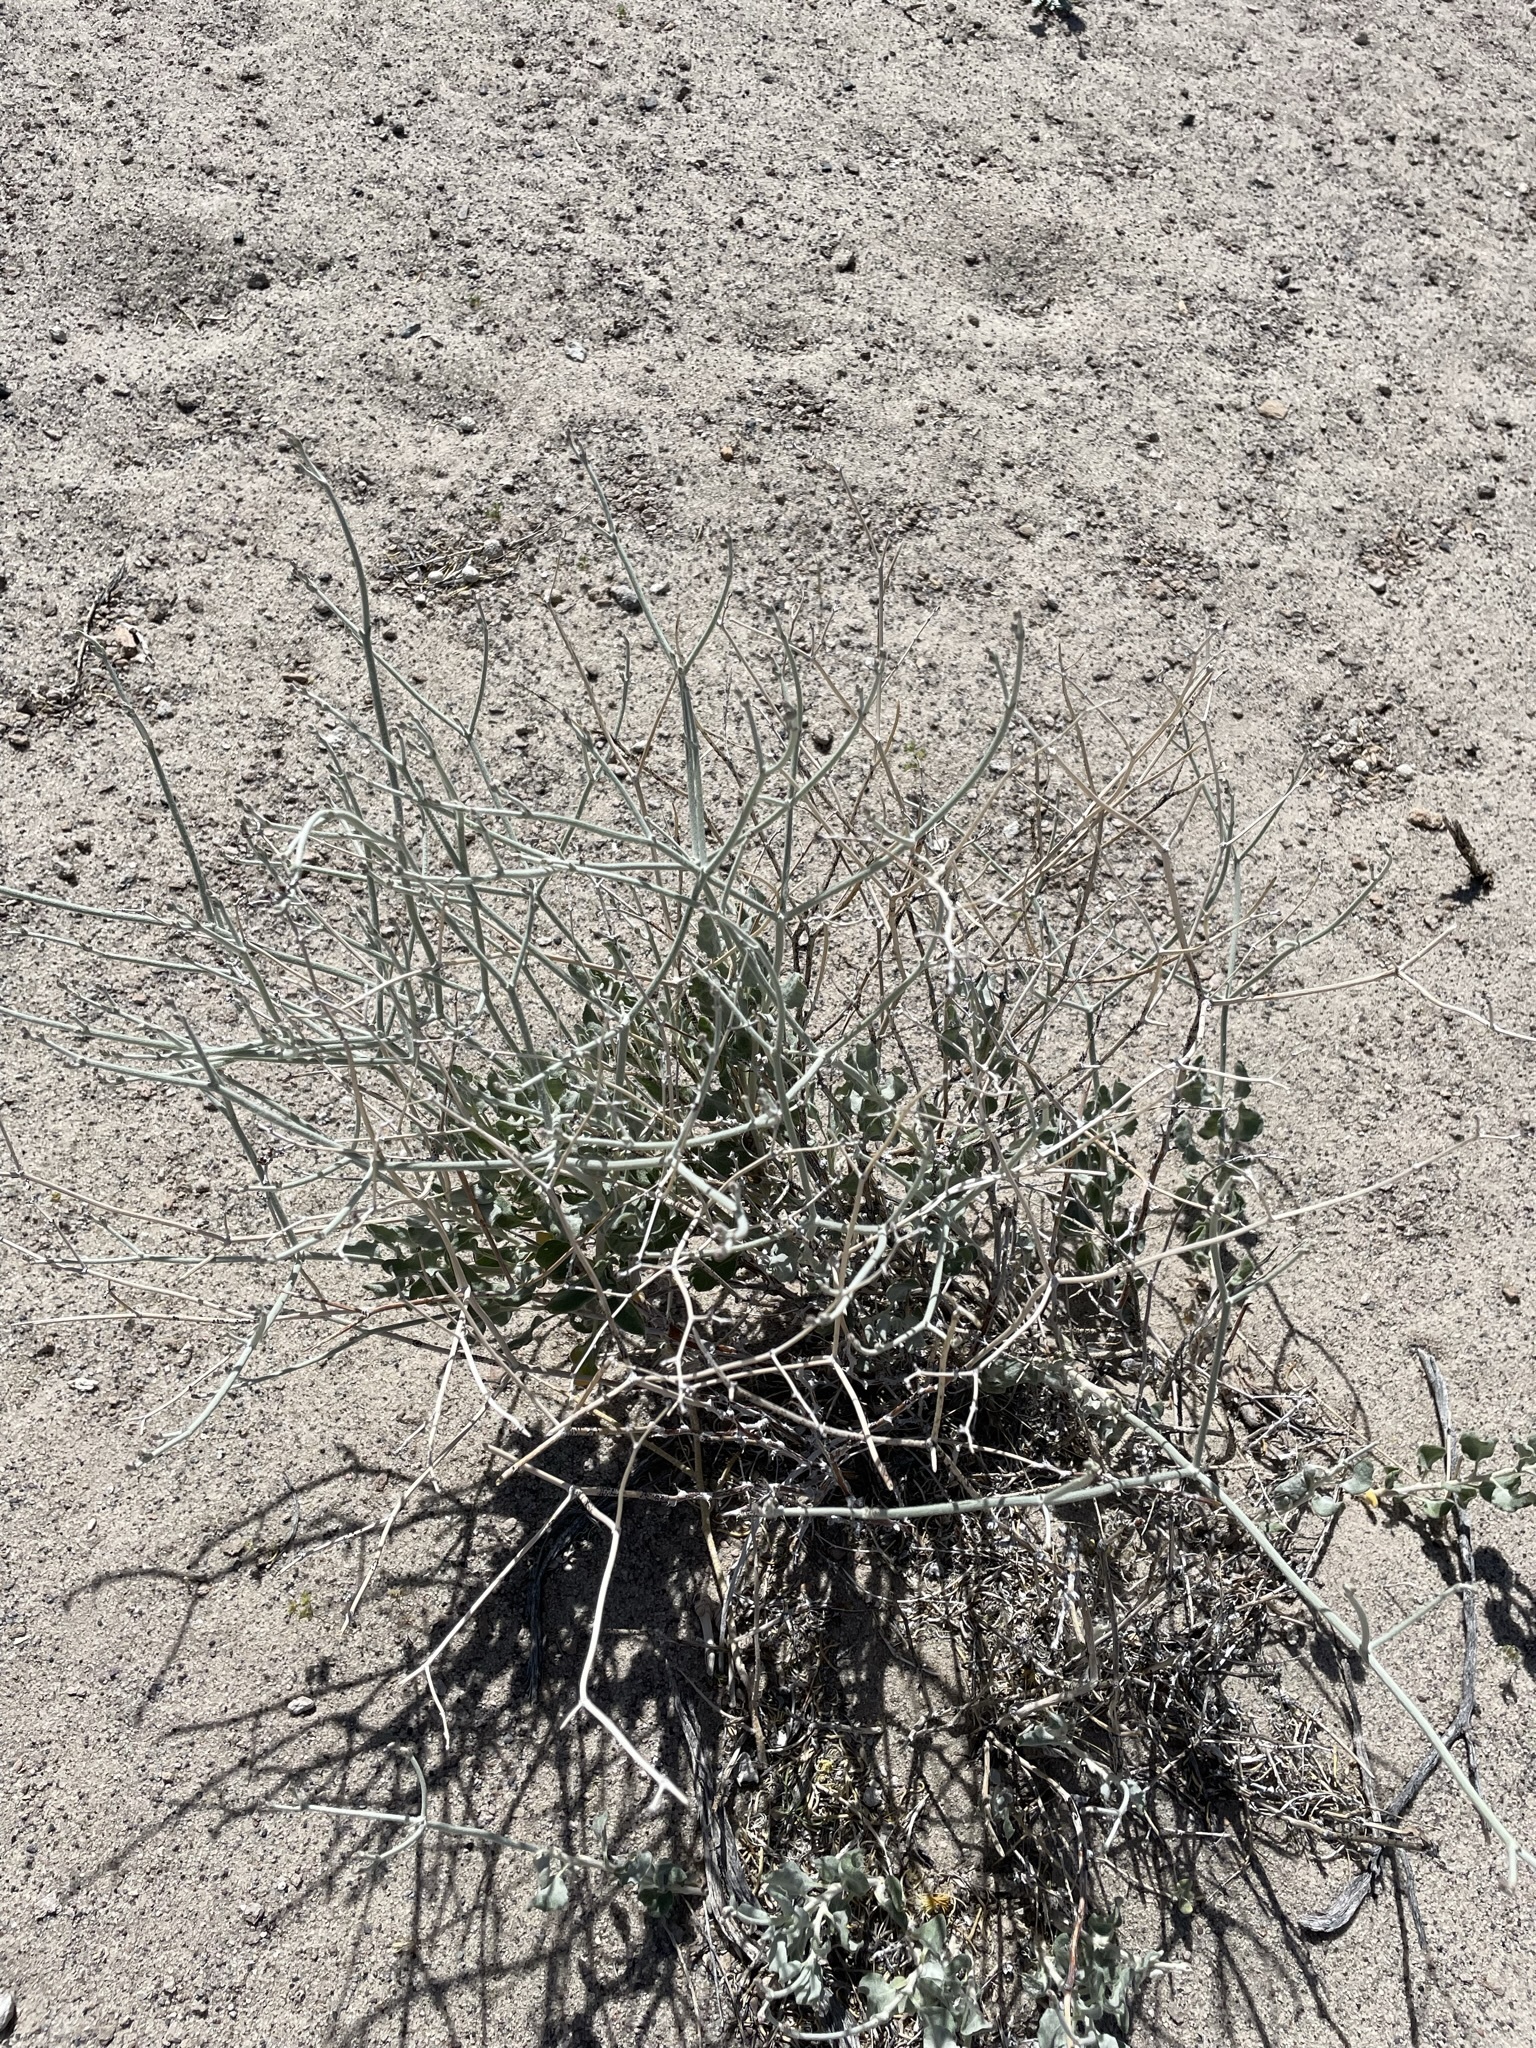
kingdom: Plantae
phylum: Tracheophyta
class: Magnoliopsida
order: Caryophyllales
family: Polygonaceae
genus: Eriogonum
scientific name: Eriogonum nummulare
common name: Kearney wild buckwheat
